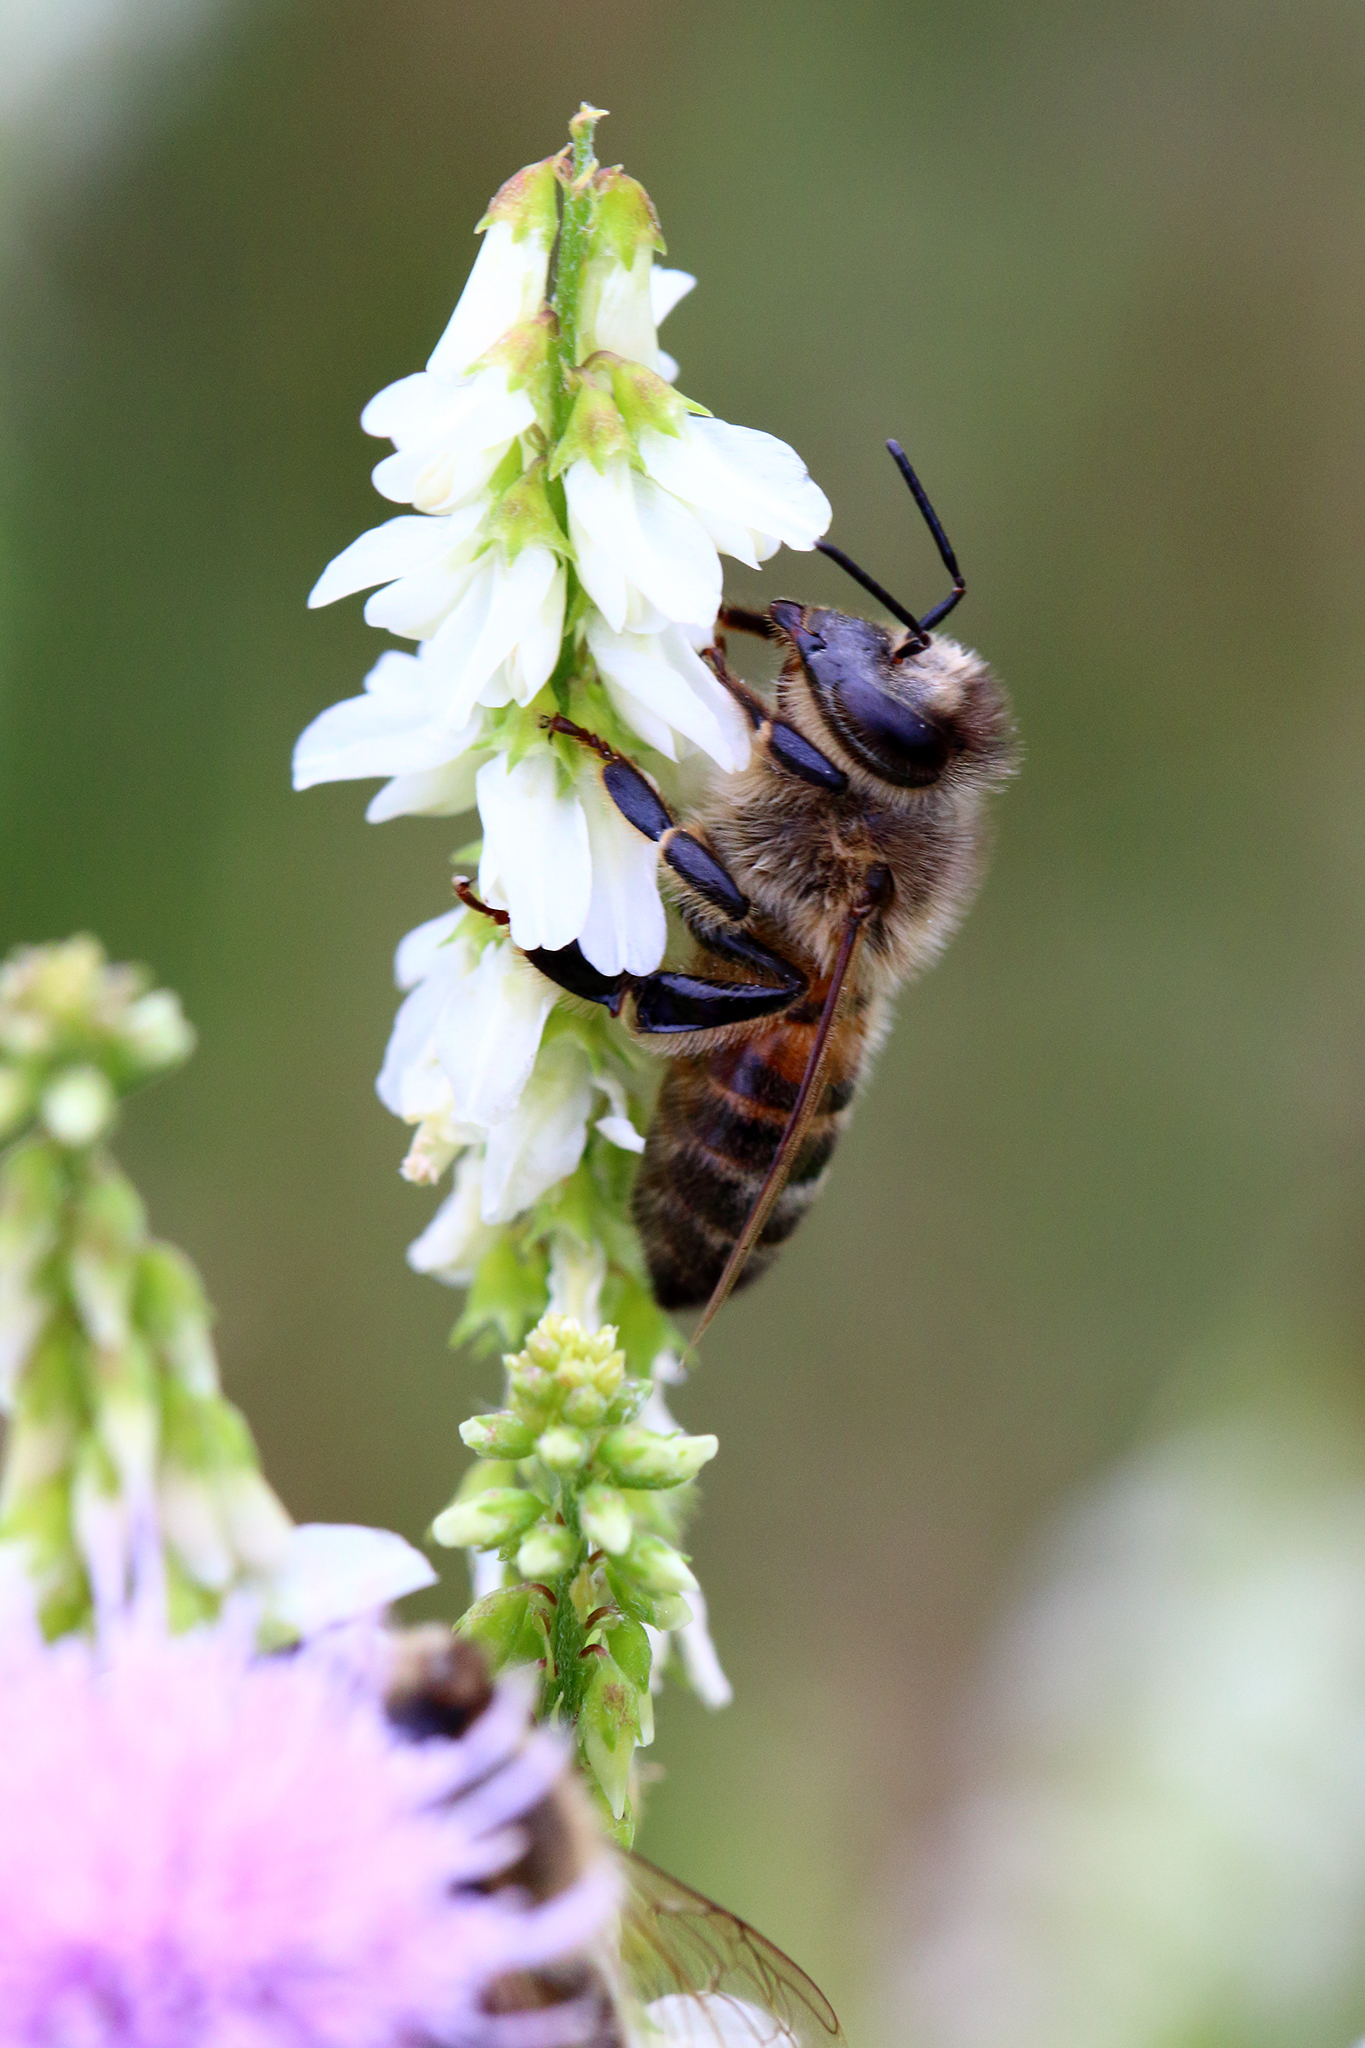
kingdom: Animalia
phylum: Arthropoda
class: Insecta
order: Hymenoptera
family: Apidae
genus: Apis
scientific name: Apis mellifera
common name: Honey bee
